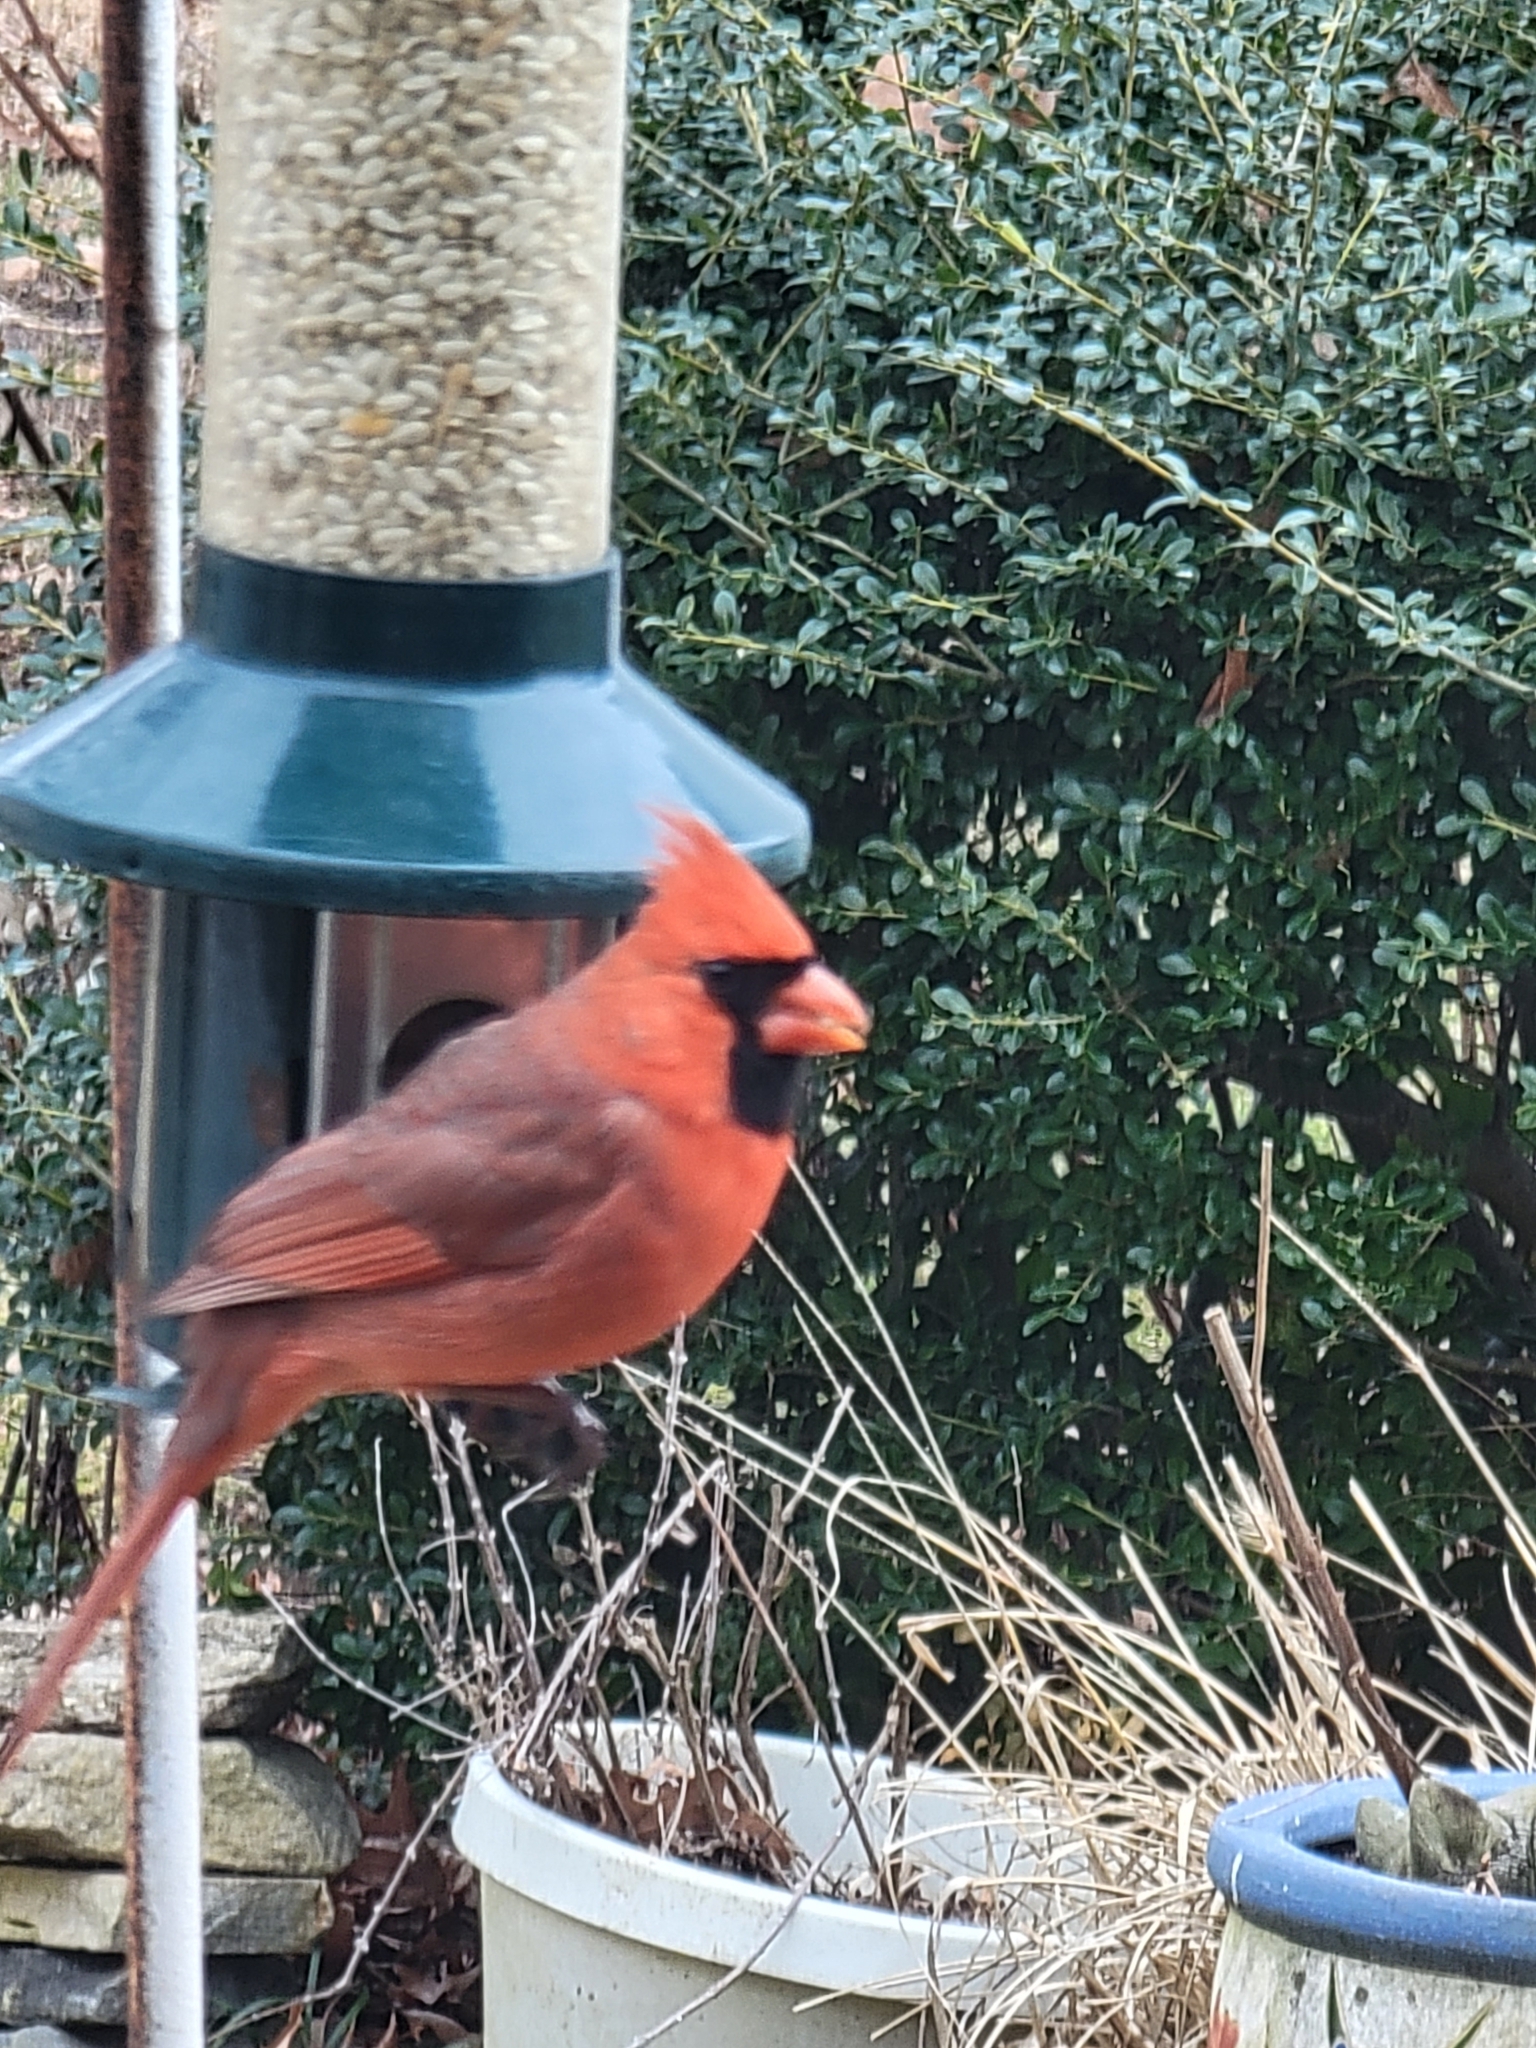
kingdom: Animalia
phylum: Chordata
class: Aves
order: Passeriformes
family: Cardinalidae
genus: Cardinalis
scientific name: Cardinalis cardinalis
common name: Northern cardinal
